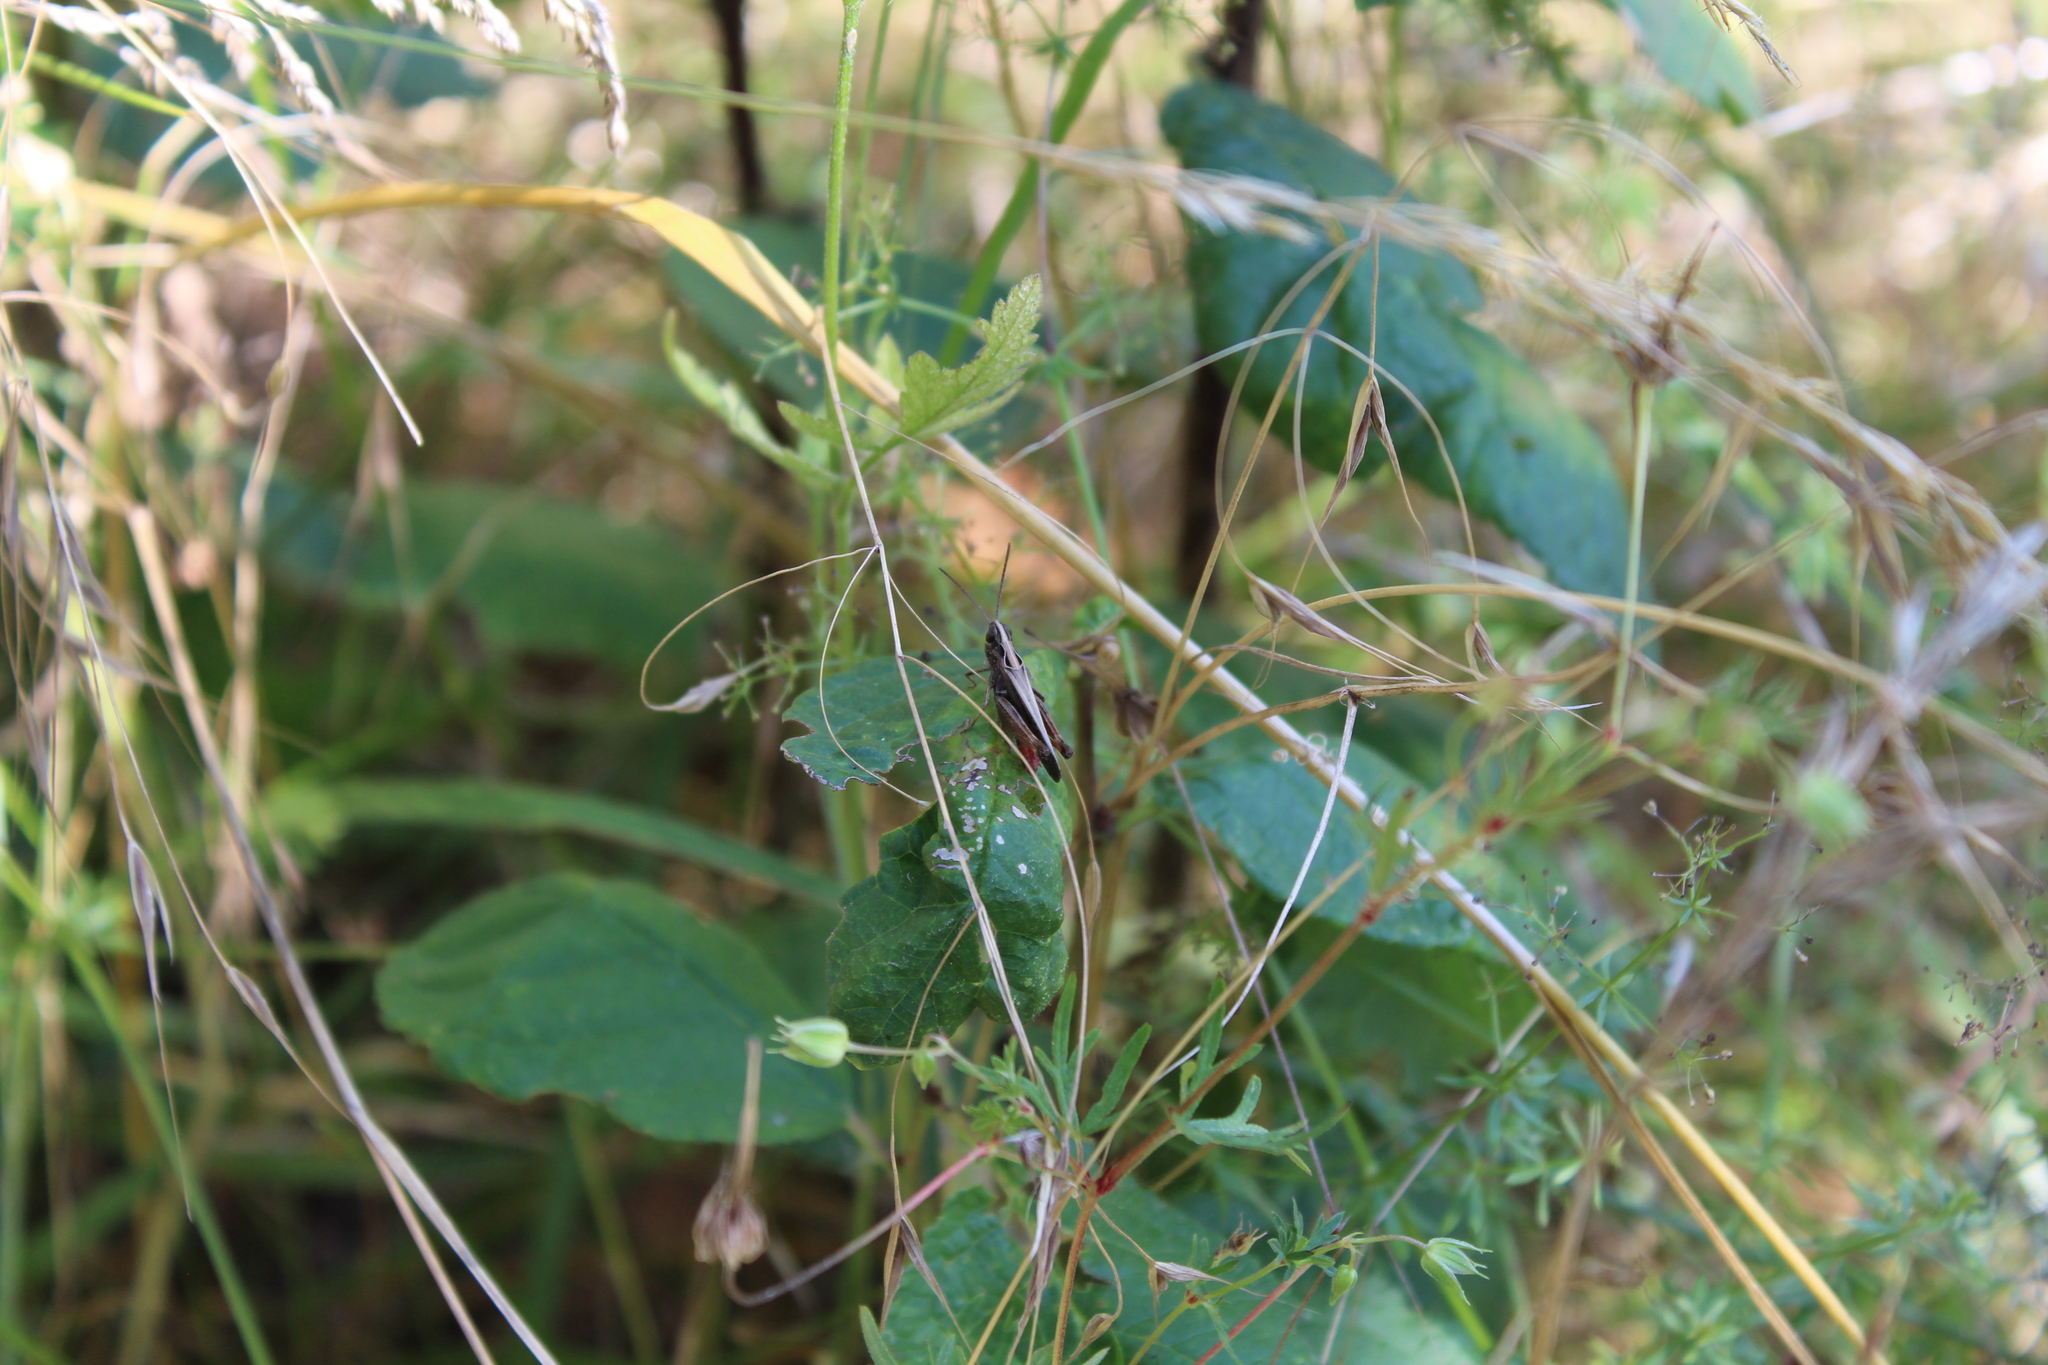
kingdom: Animalia
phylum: Arthropoda
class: Insecta
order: Orthoptera
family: Acrididae
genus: Omocestus
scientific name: Omocestus rufipes
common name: Woodland grasshopper
